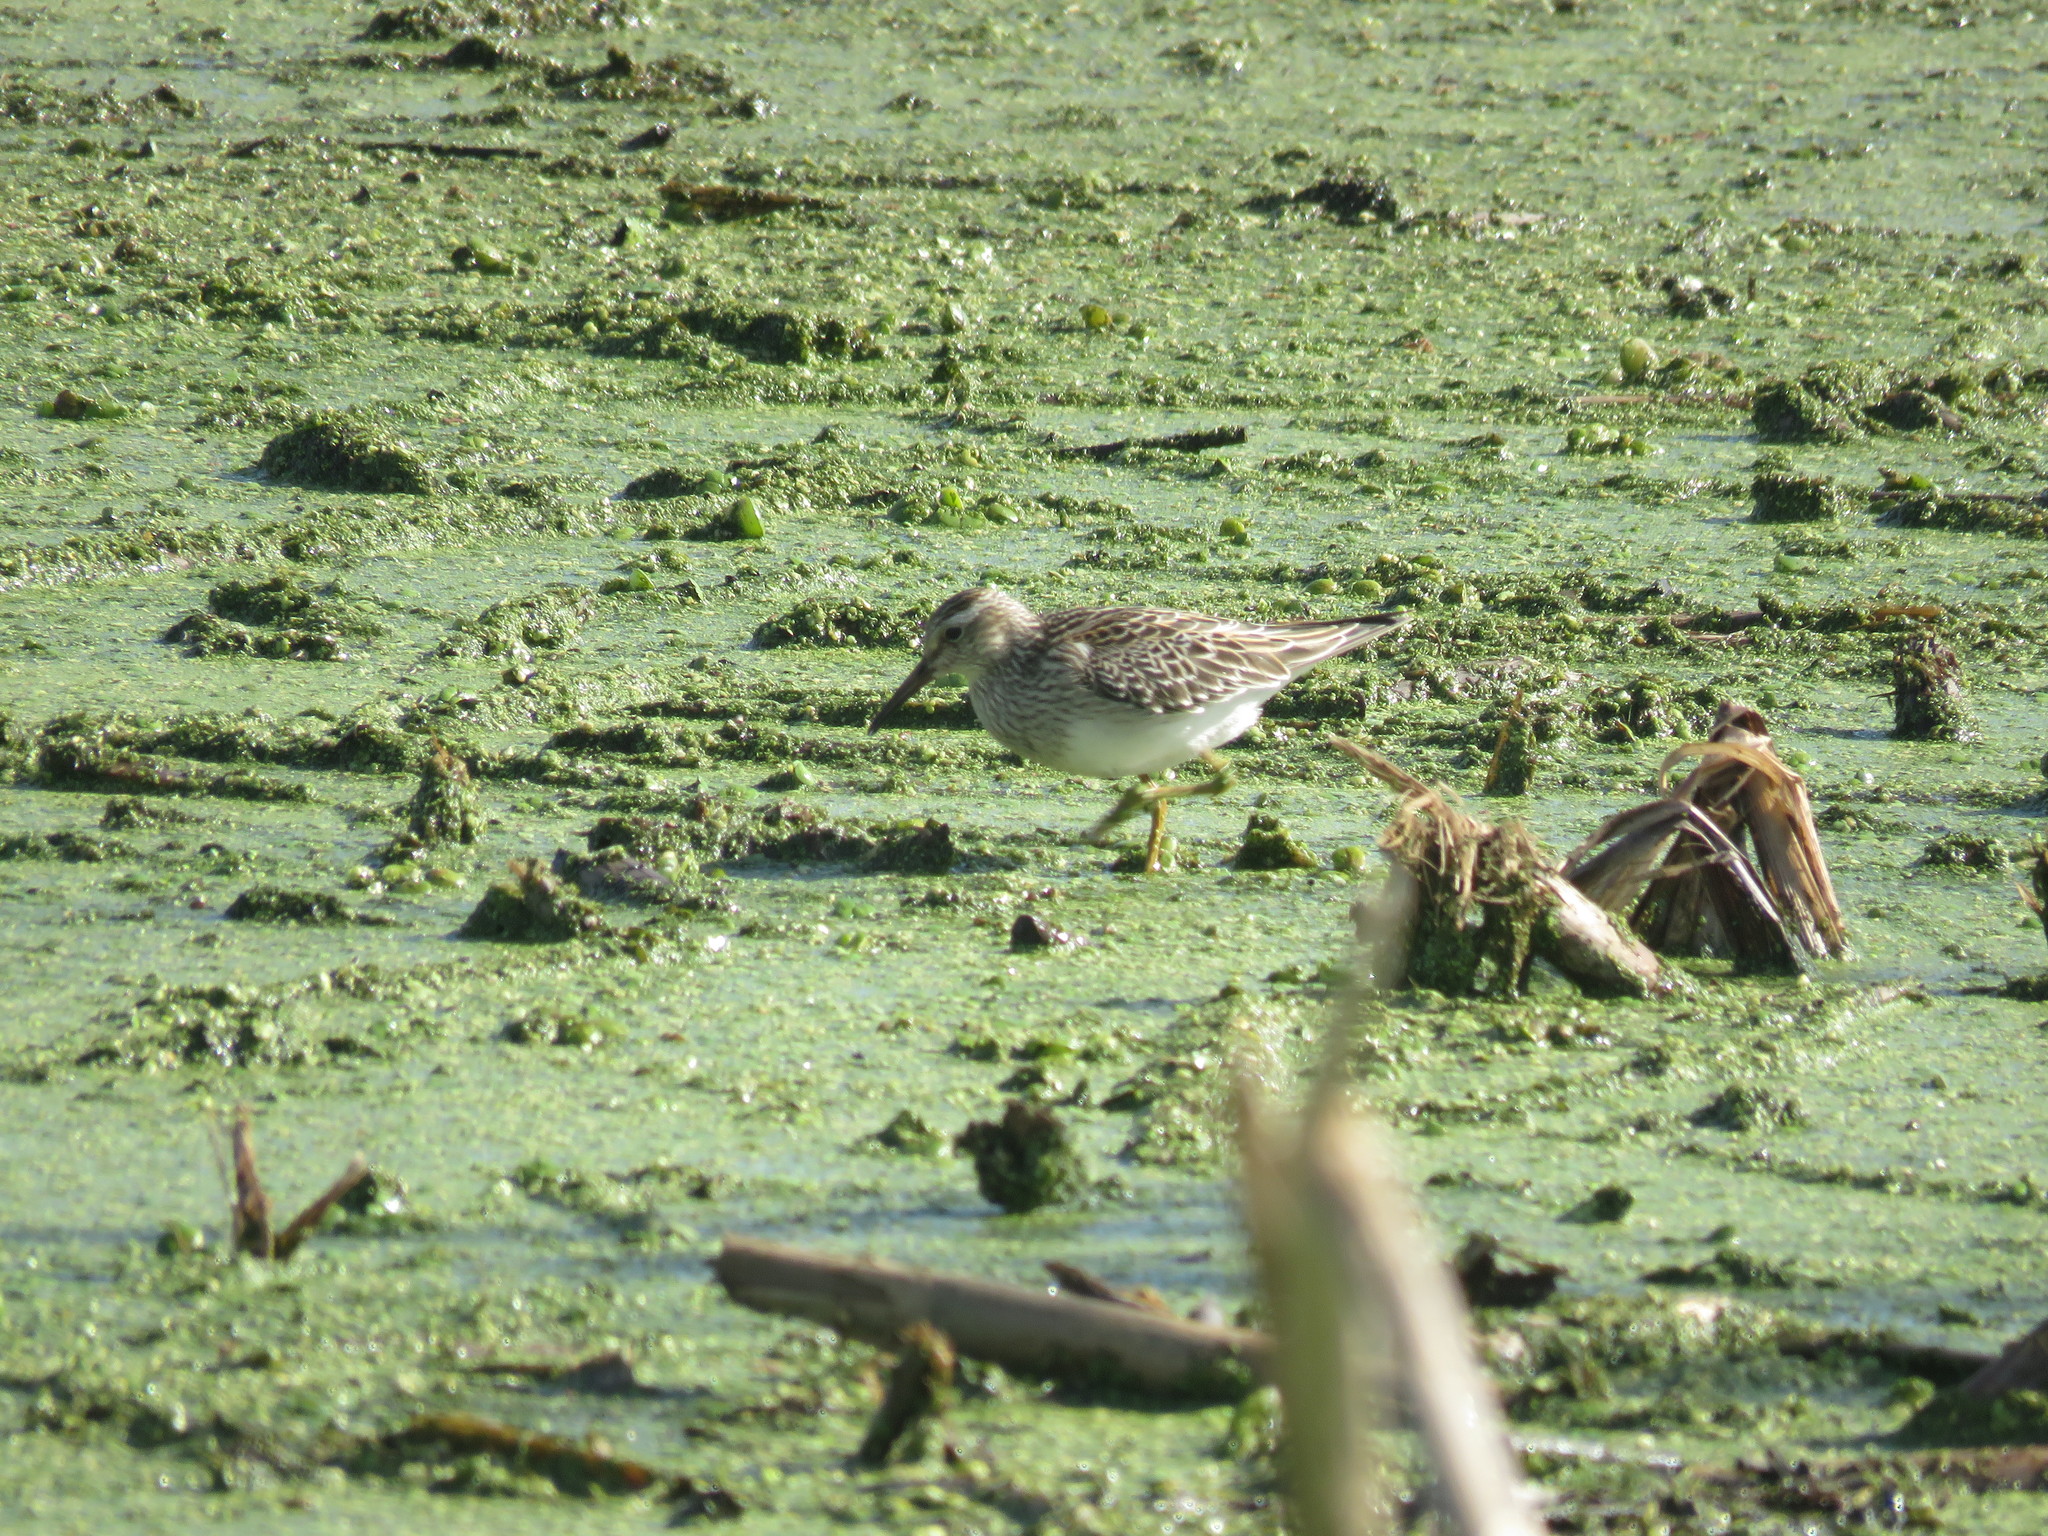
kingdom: Animalia
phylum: Chordata
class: Aves
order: Charadriiformes
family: Scolopacidae
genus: Calidris
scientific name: Calidris melanotos
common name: Pectoral sandpiper
